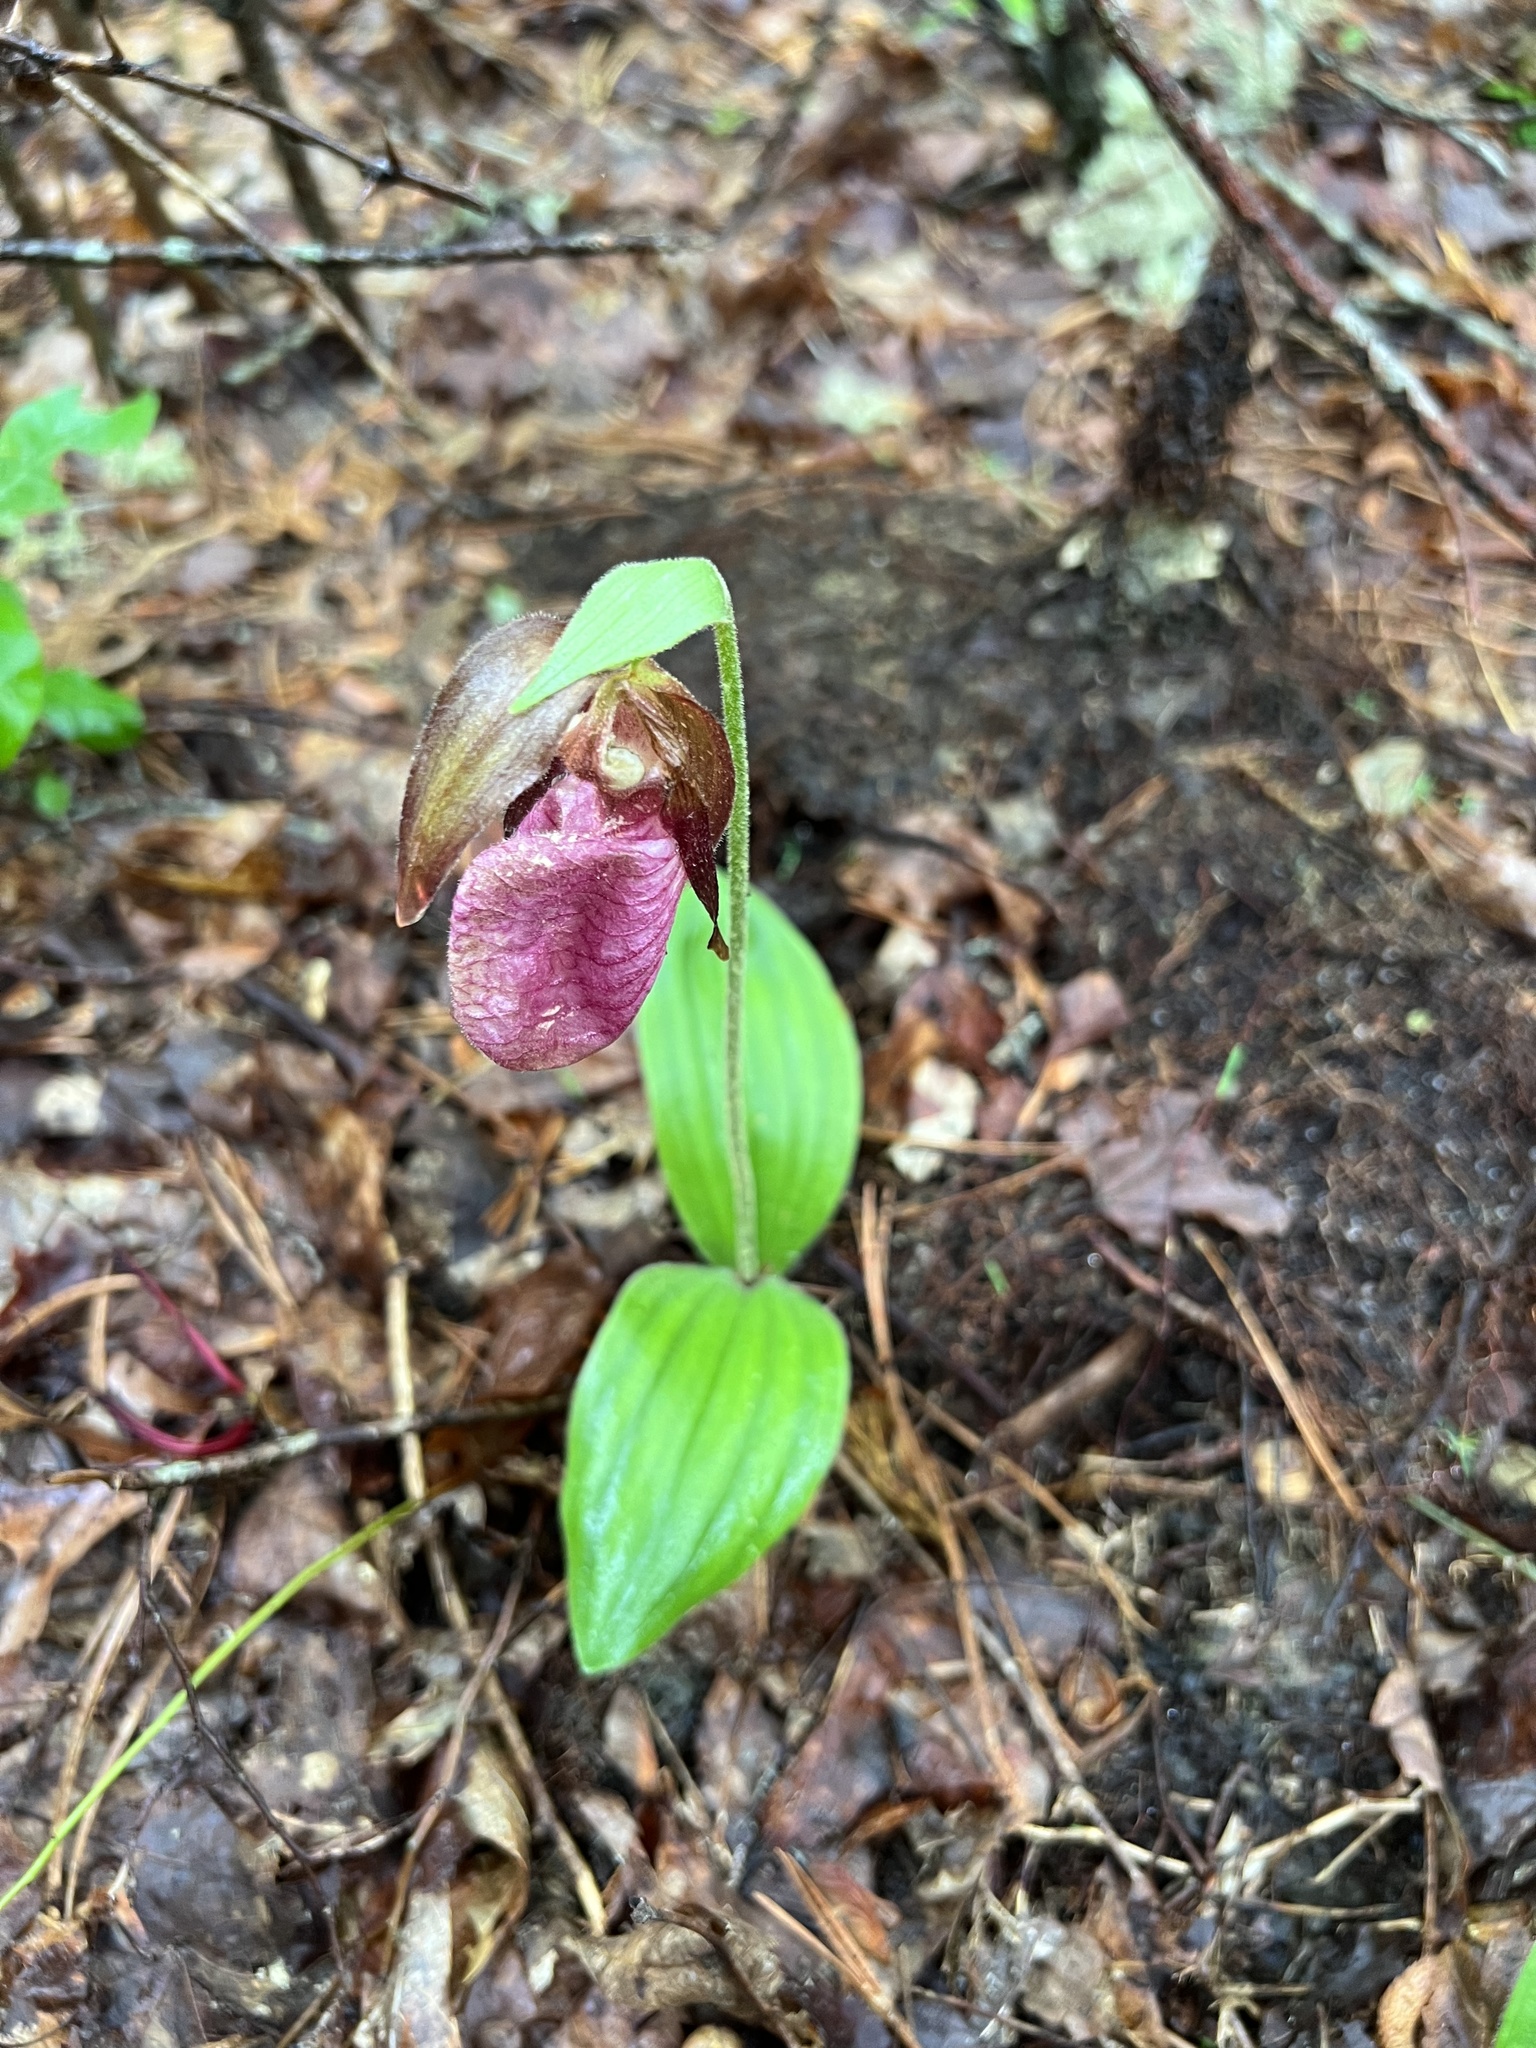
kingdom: Plantae
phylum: Tracheophyta
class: Liliopsida
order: Asparagales
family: Orchidaceae
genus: Cypripedium
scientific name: Cypripedium acaule
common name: Pink lady's-slipper
